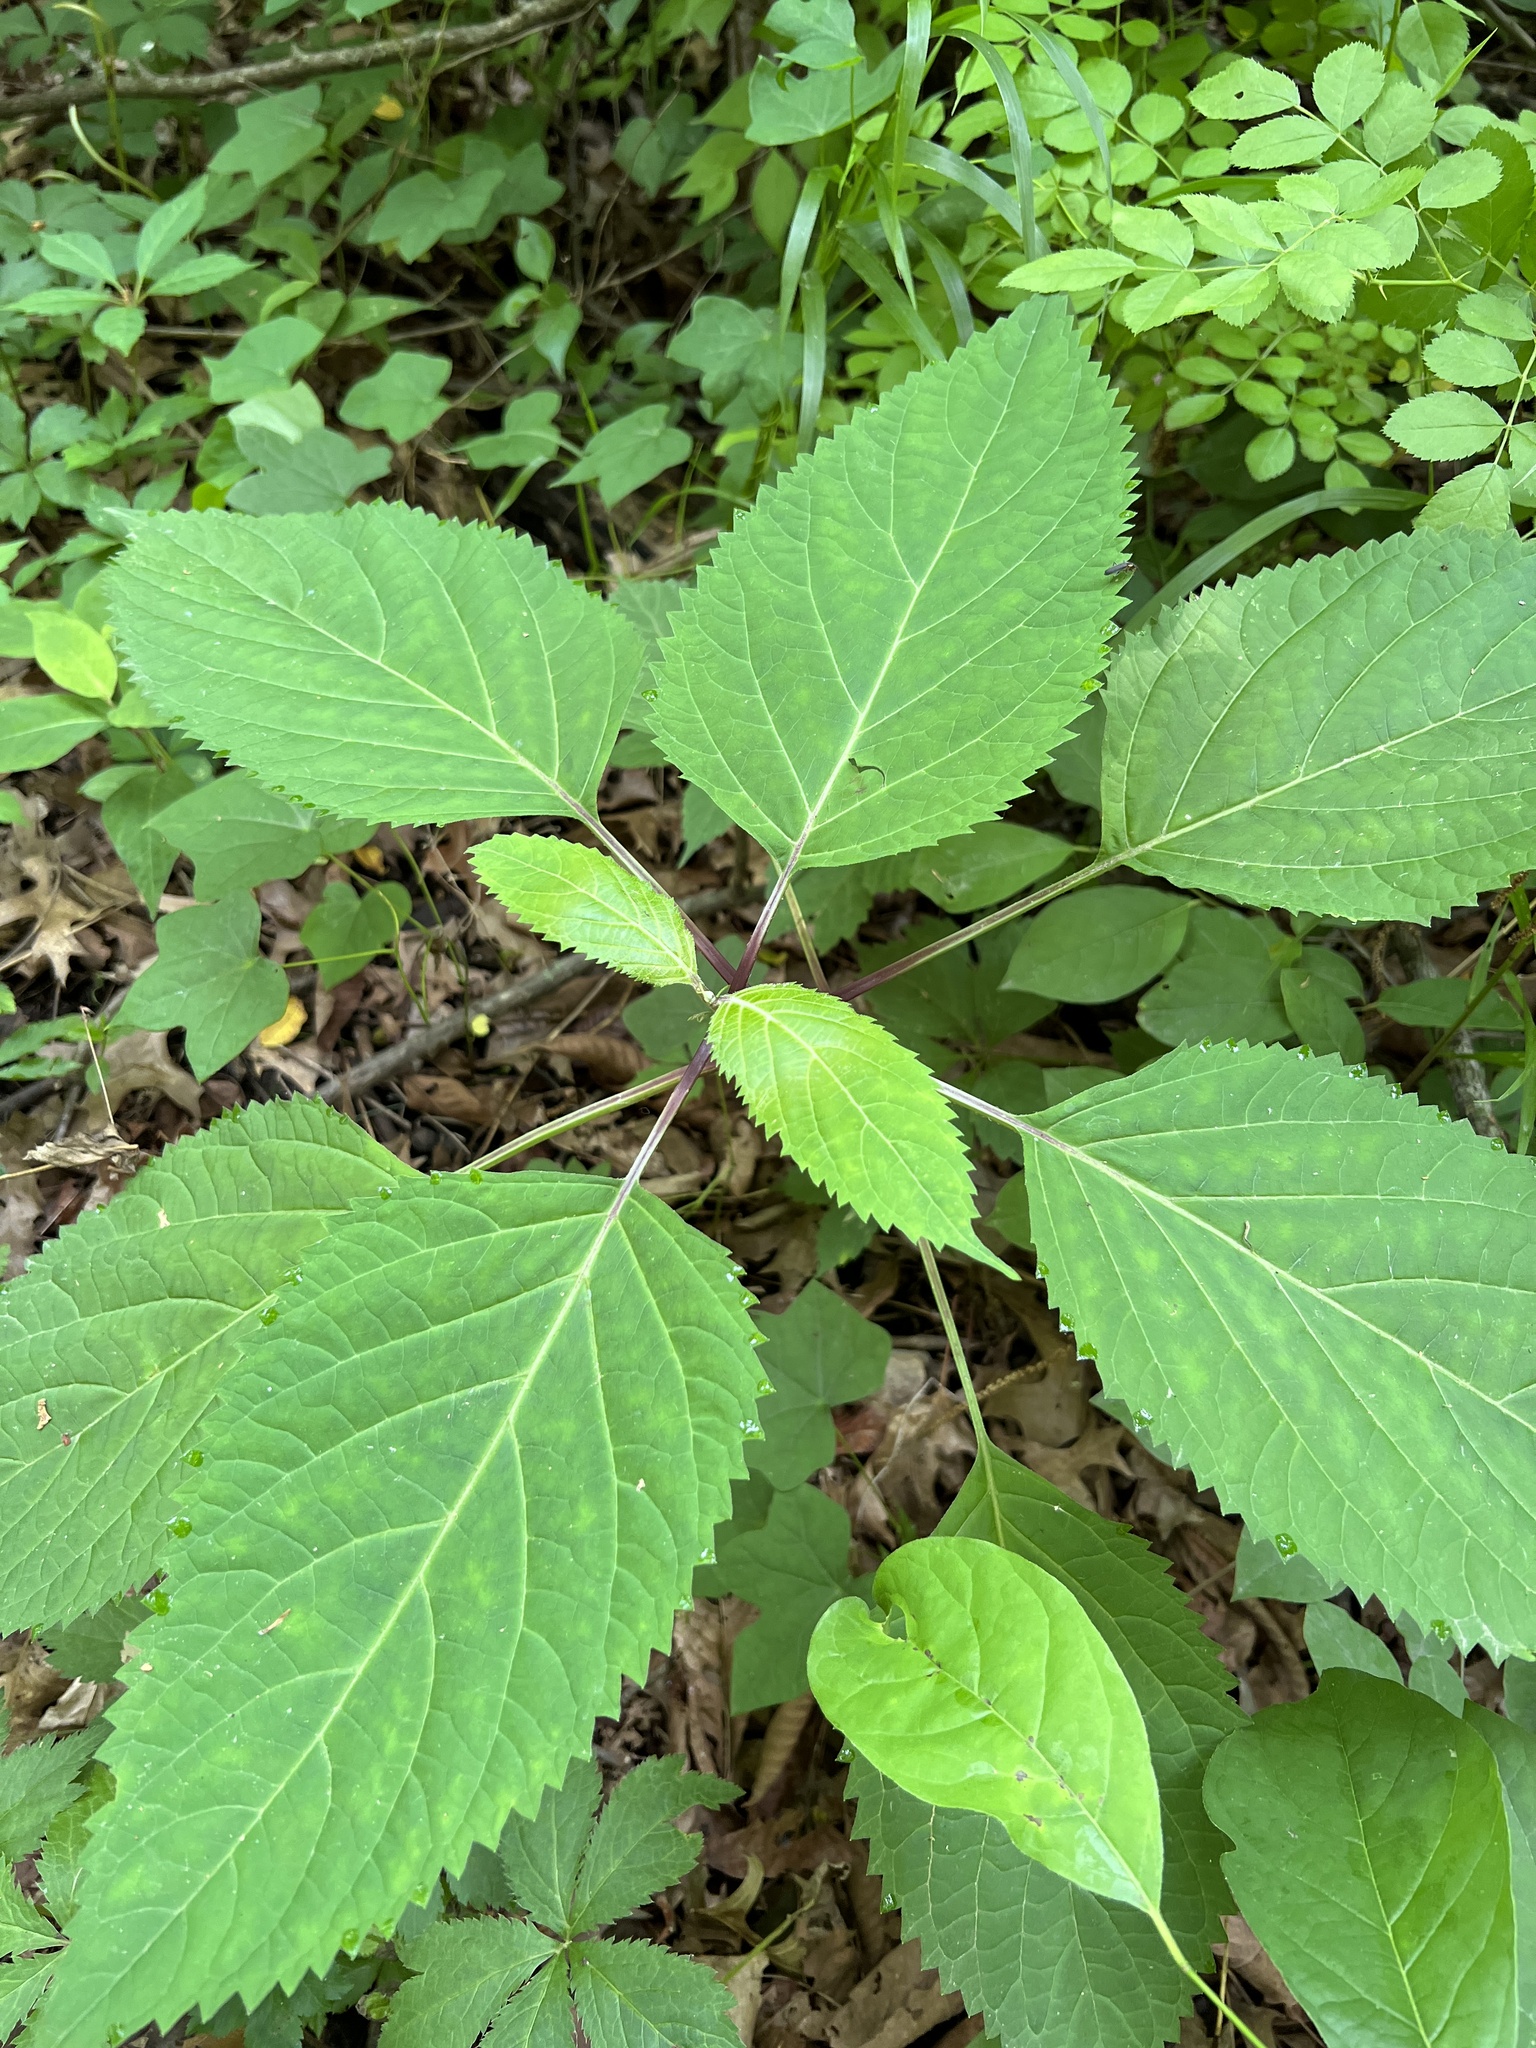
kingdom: Plantae
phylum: Tracheophyta
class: Magnoliopsida
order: Lamiales
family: Lamiaceae
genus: Collinsonia
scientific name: Collinsonia canadensis
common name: Northern horsebalm
